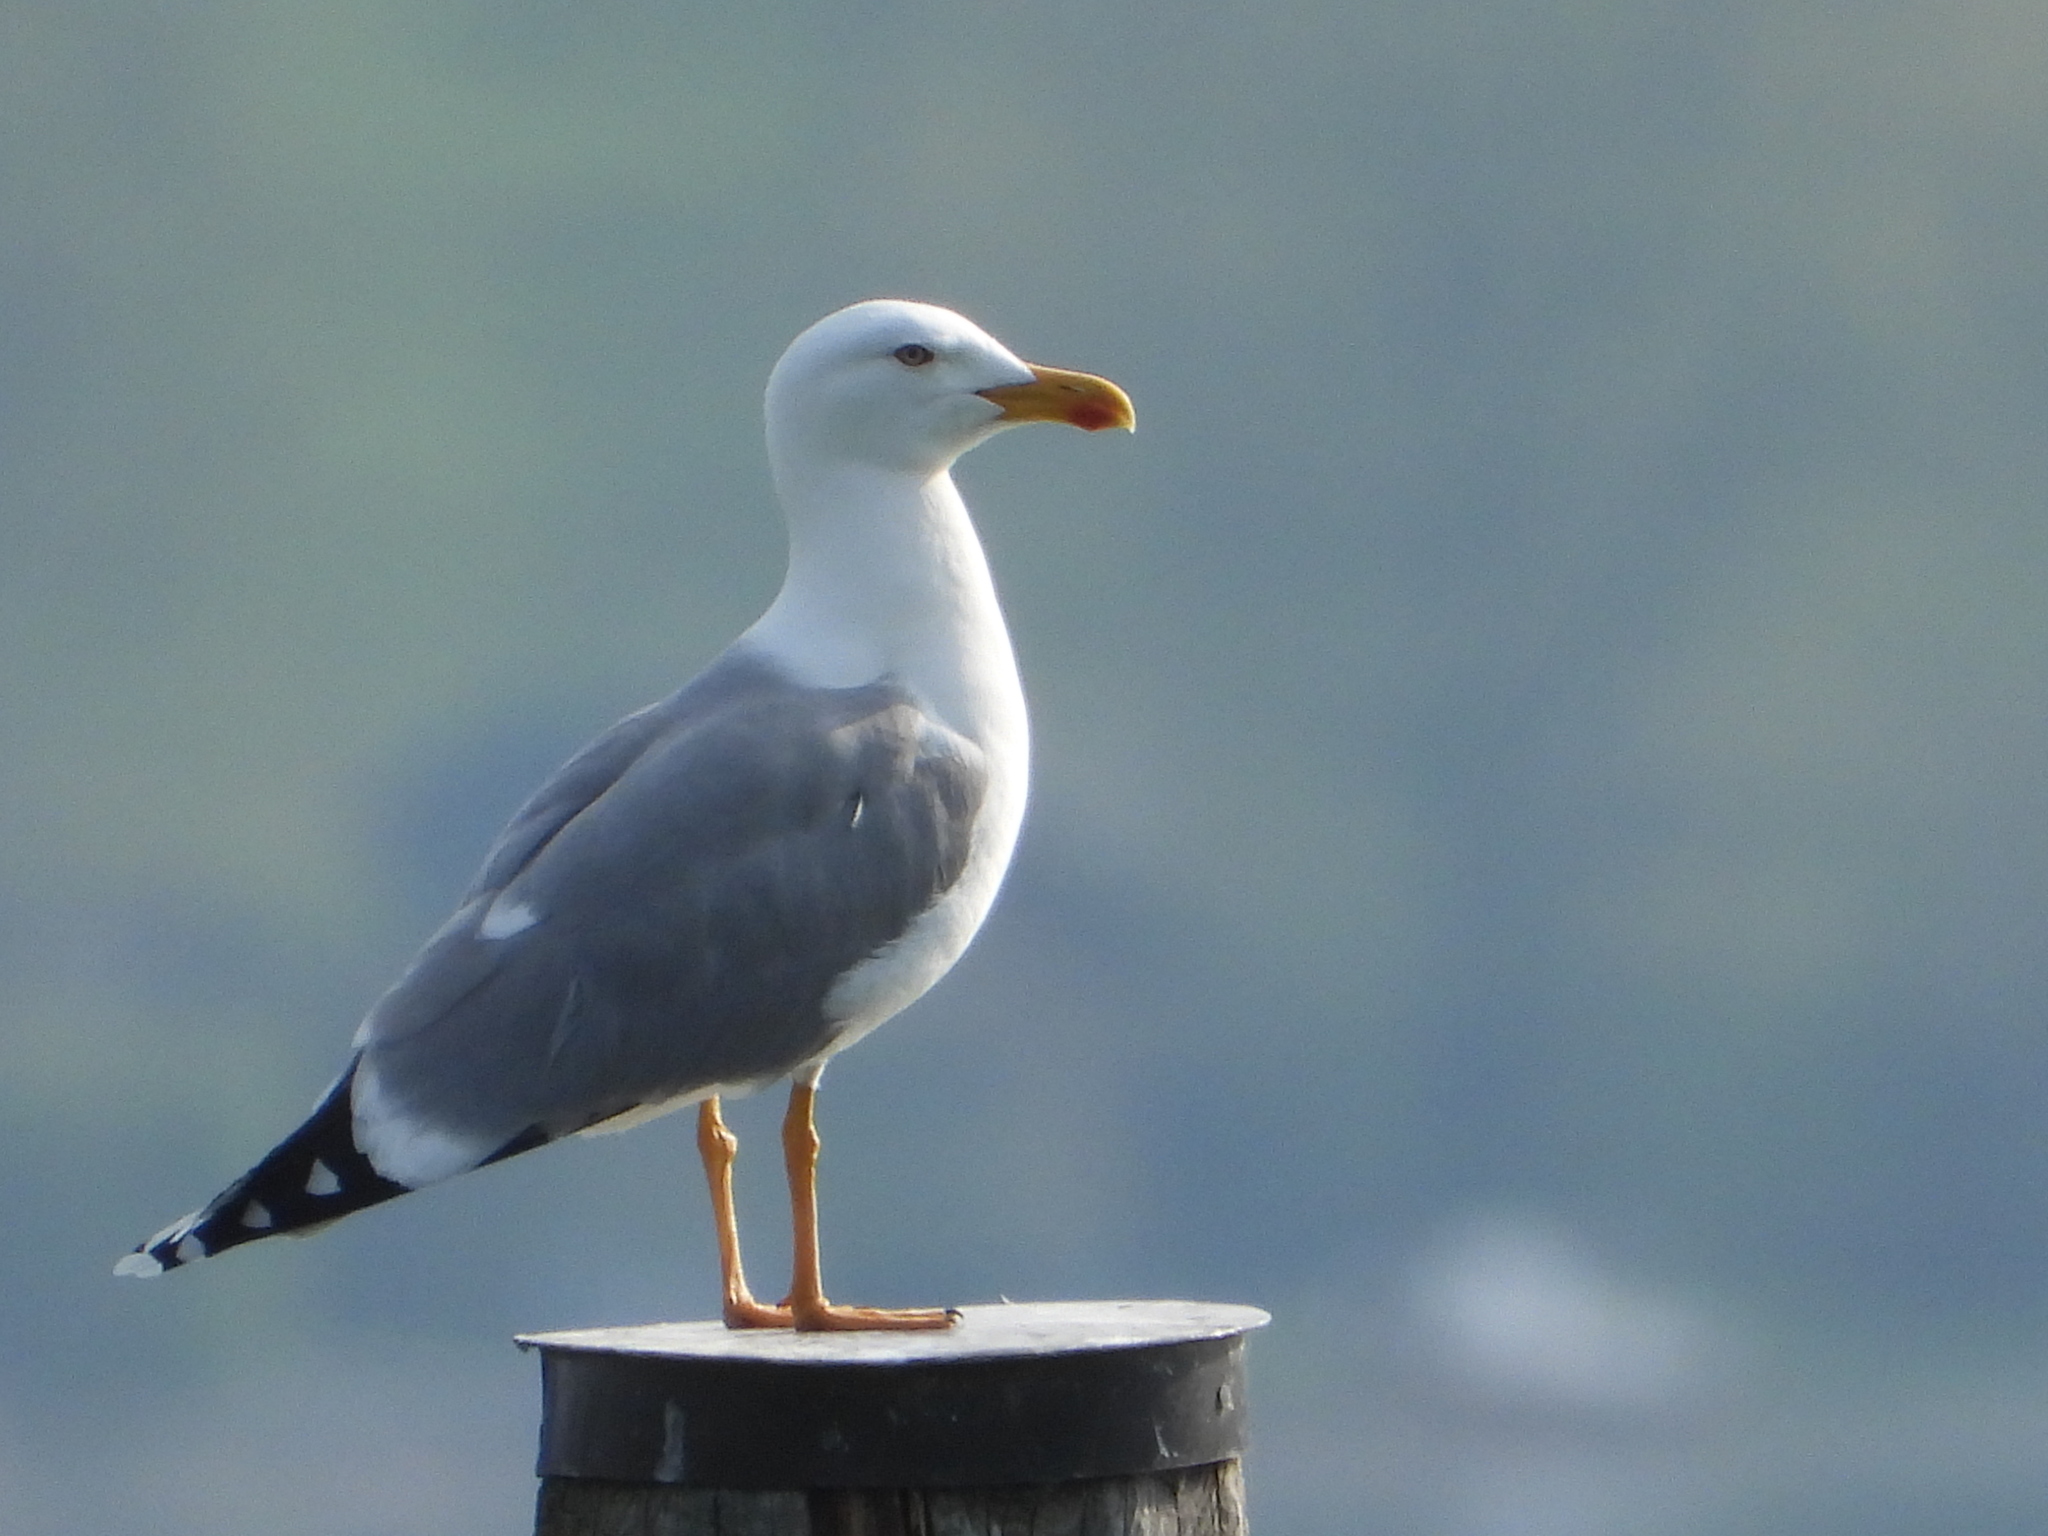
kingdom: Animalia
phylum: Chordata
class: Aves
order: Charadriiformes
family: Laridae
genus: Larus
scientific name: Larus michahellis
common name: Yellow-legged gull
